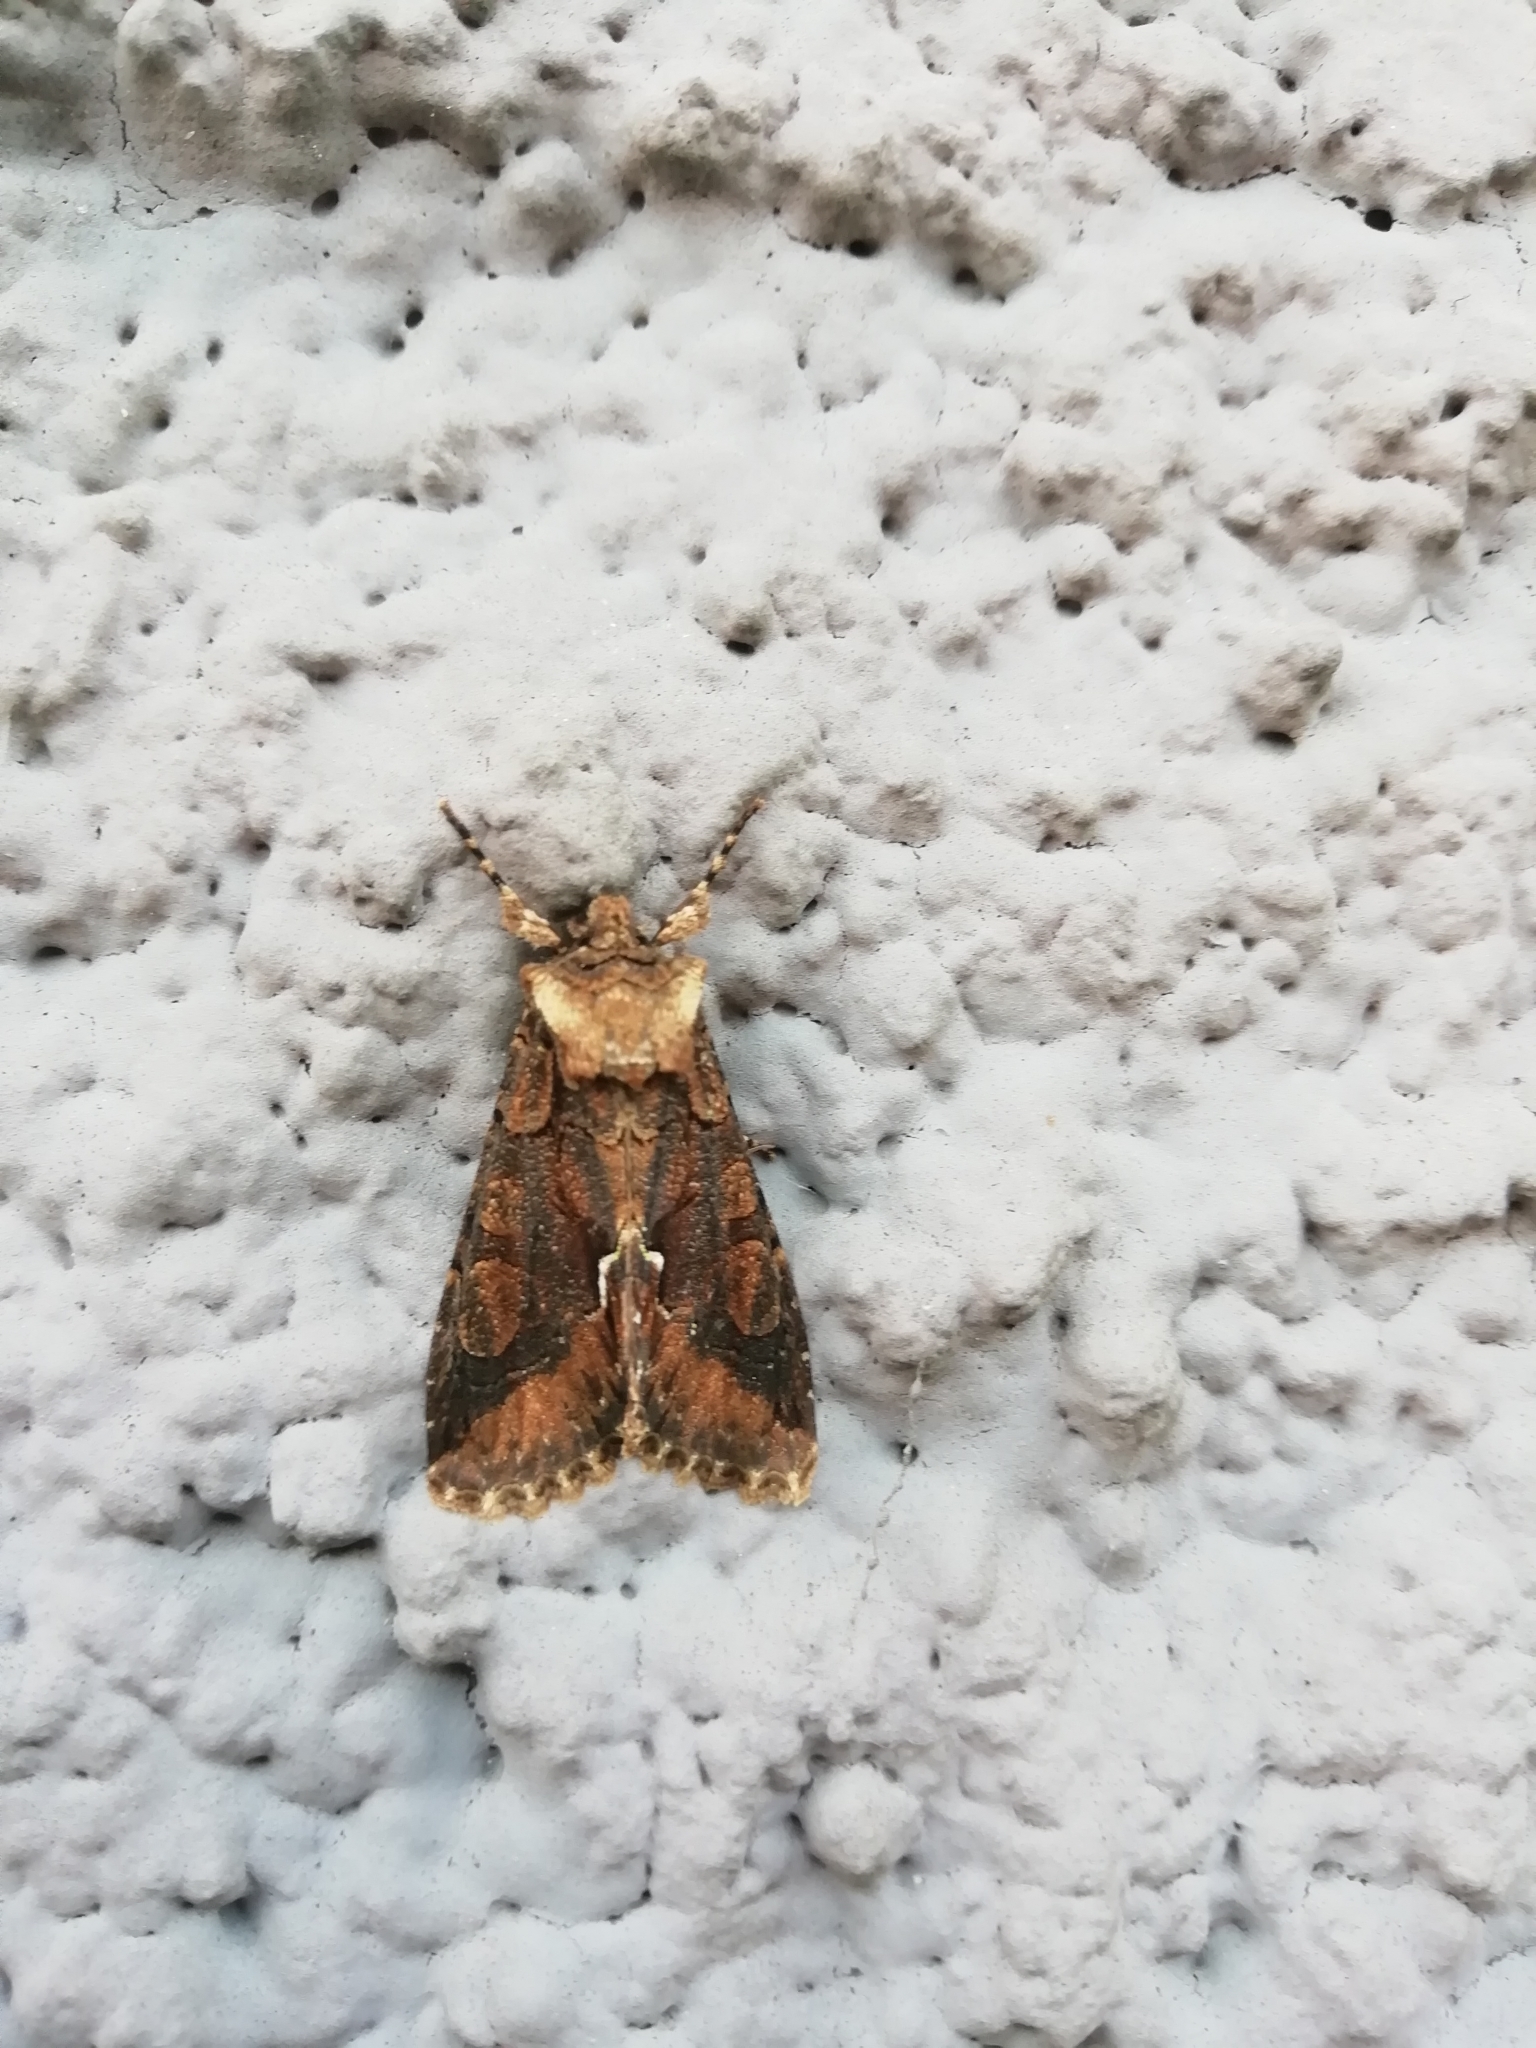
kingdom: Animalia
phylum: Arthropoda
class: Insecta
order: Lepidoptera
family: Noctuidae
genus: Allophyes
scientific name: Allophyes oxyacanthae
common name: Green-brindled crescent
